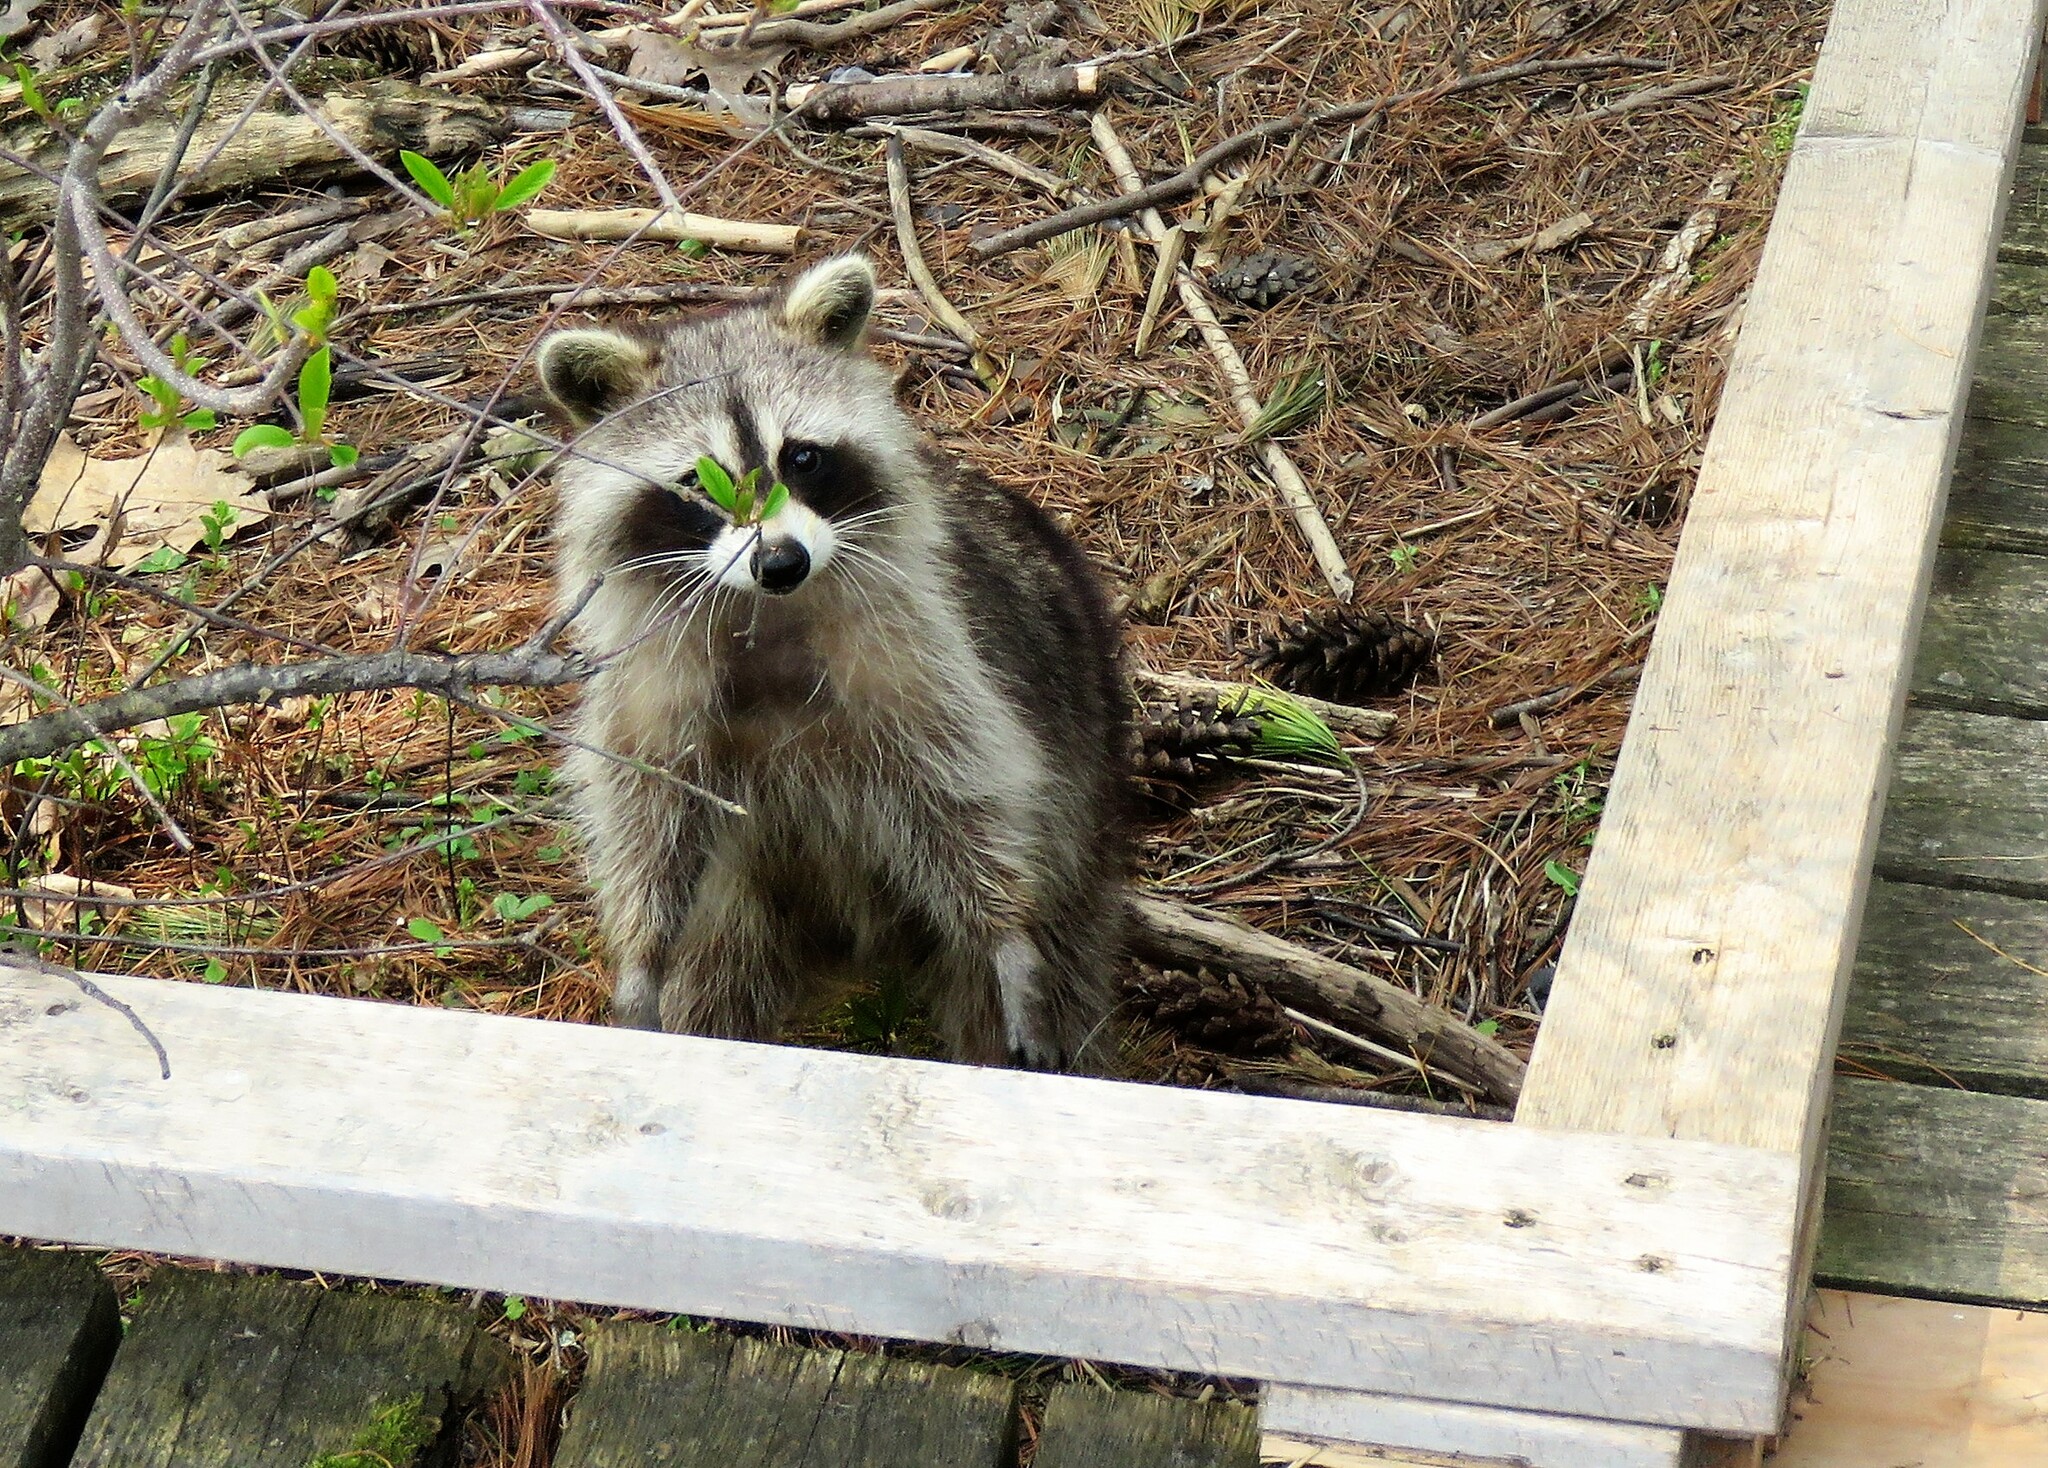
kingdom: Animalia
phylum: Chordata
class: Mammalia
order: Carnivora
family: Procyonidae
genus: Procyon
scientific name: Procyon lotor
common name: Raccoon
